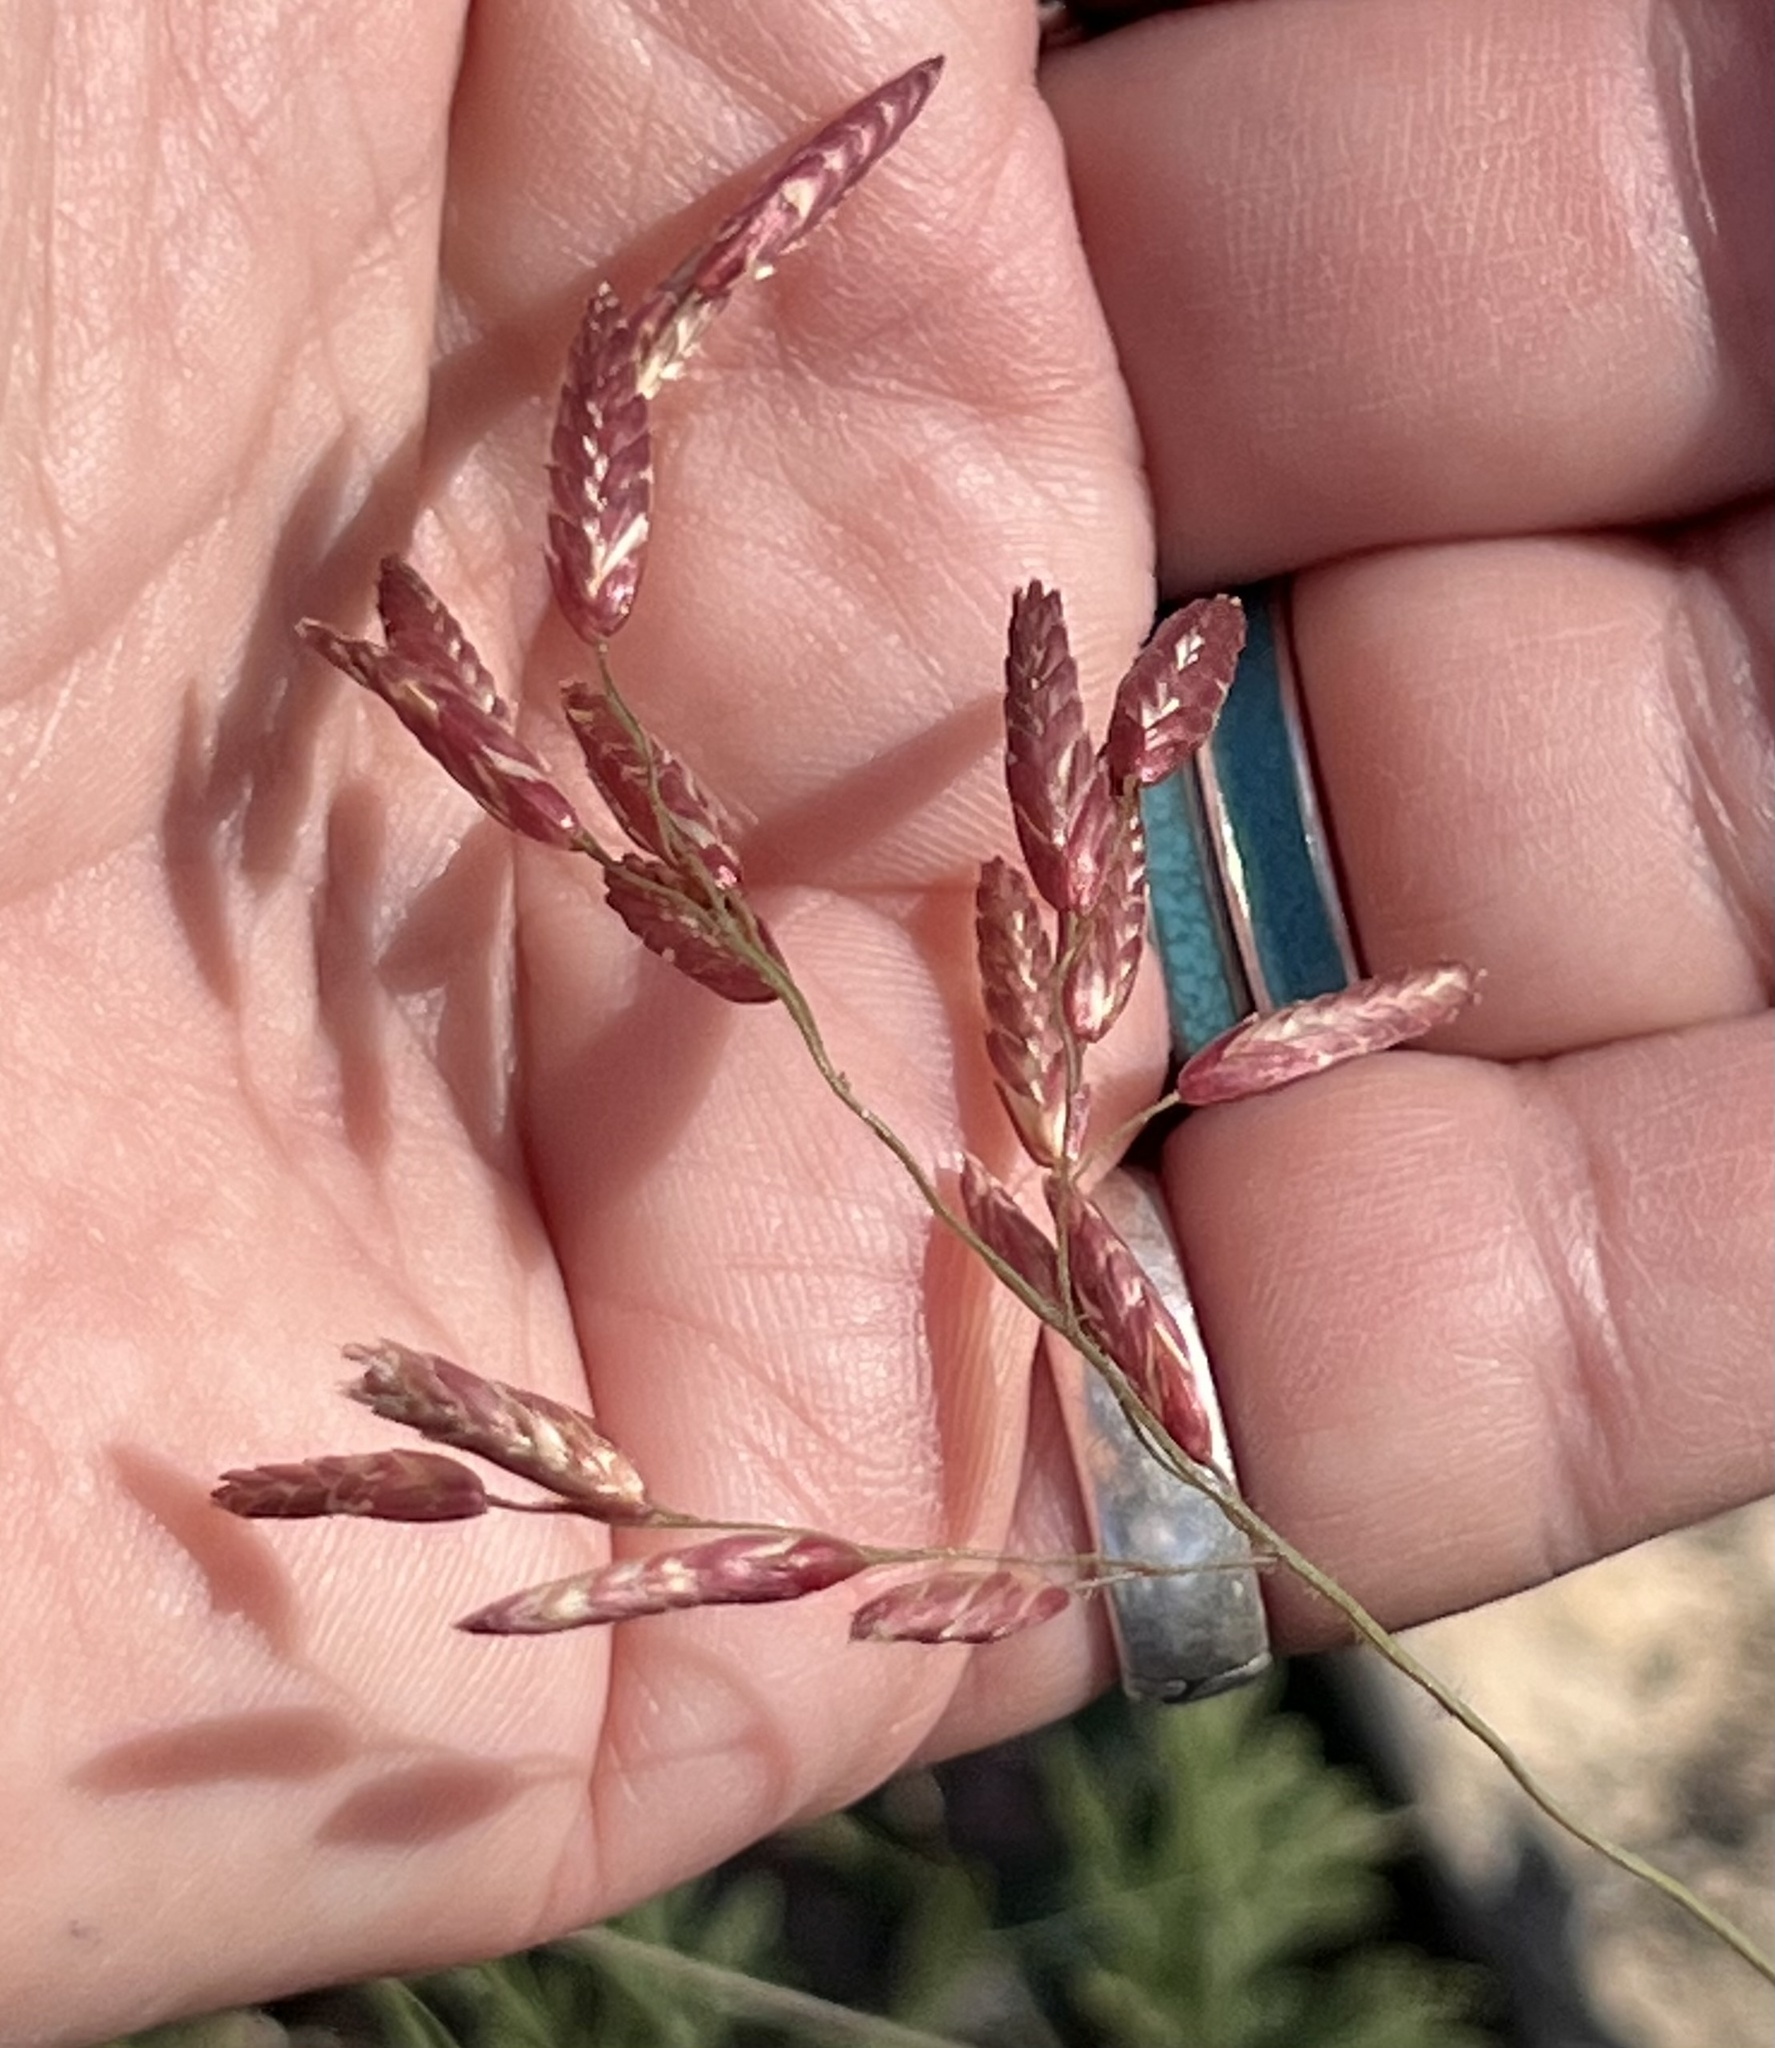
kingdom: Plantae
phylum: Tracheophyta
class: Liliopsida
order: Poales
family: Poaceae
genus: Tridens
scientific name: Tridens texanus
